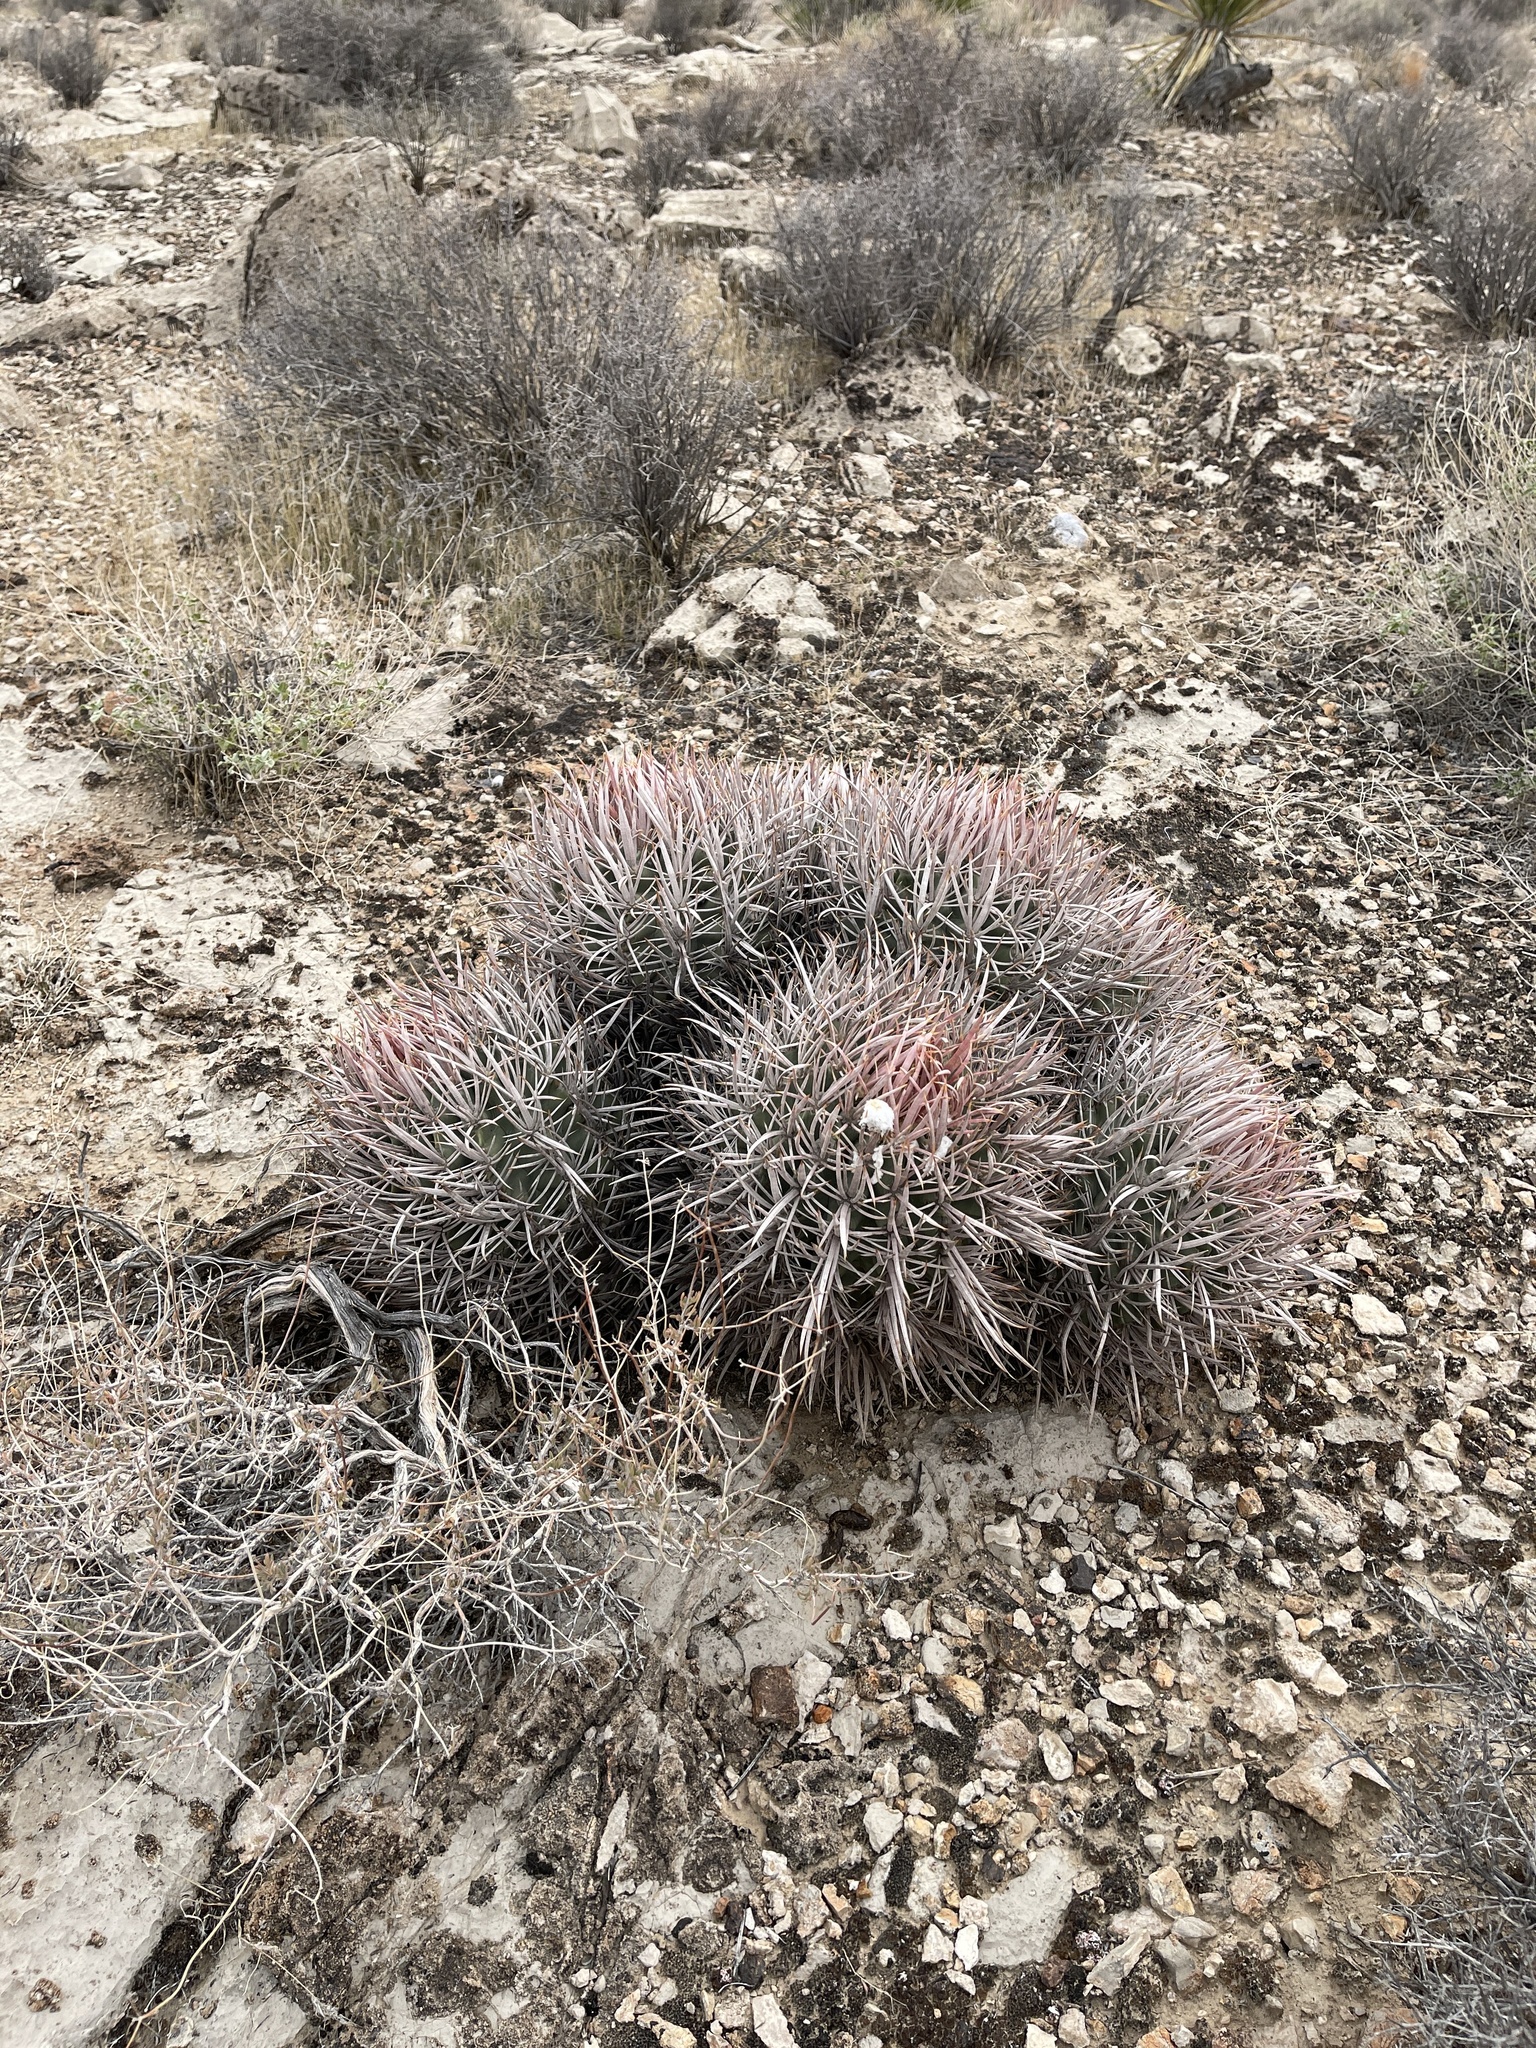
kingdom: Plantae
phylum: Tracheophyta
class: Magnoliopsida
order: Caryophyllales
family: Cactaceae
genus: Echinocactus
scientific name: Echinocactus polycephalus
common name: Cottontop cactus
